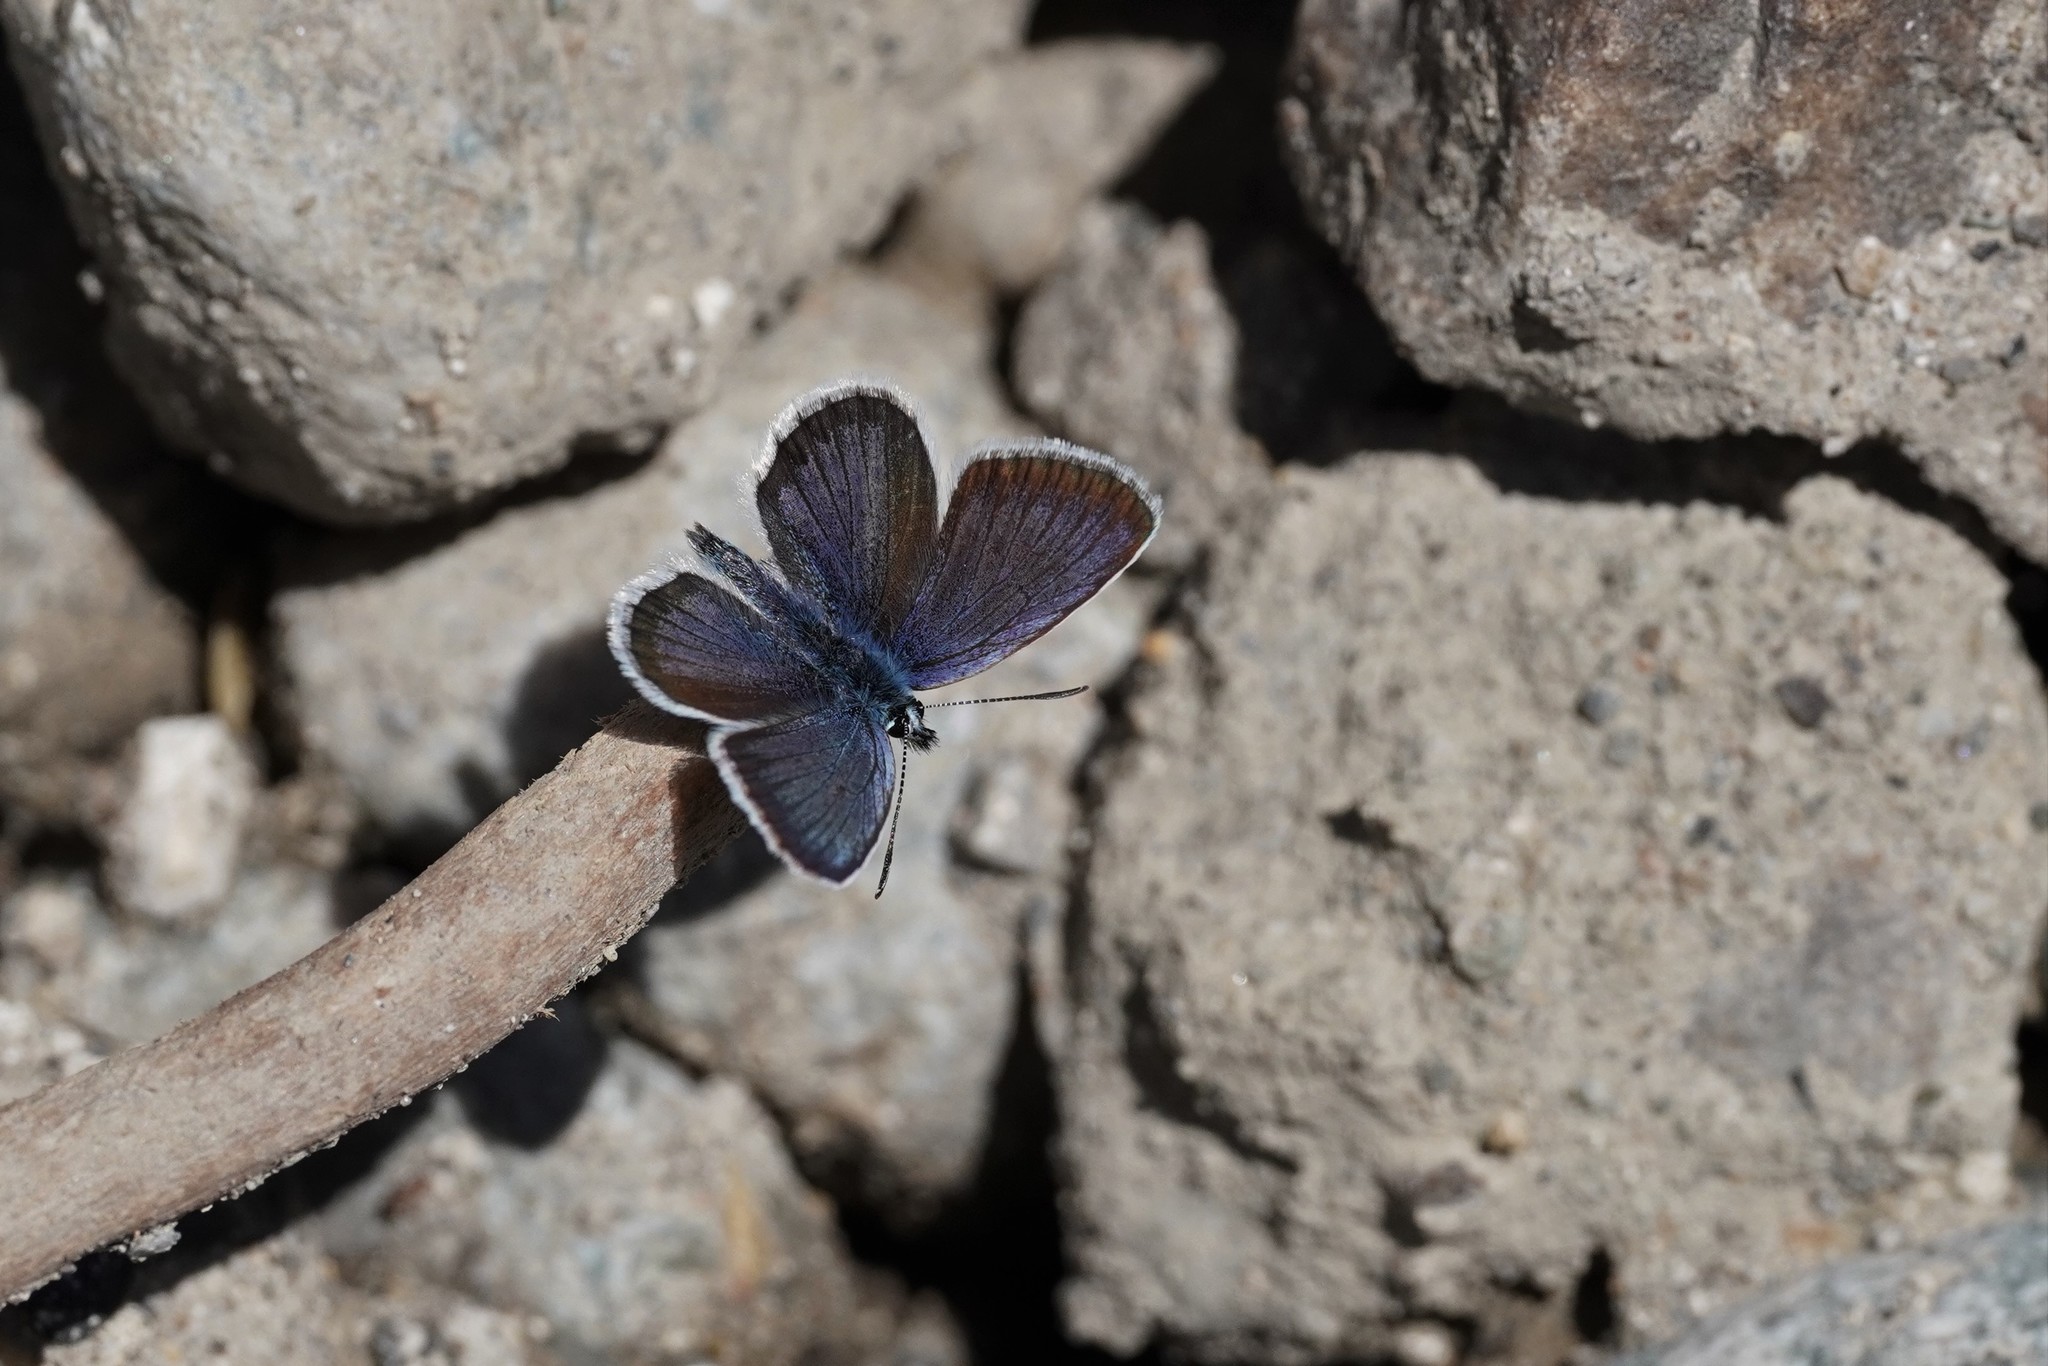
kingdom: Animalia
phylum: Arthropoda
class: Insecta
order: Lepidoptera
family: Lycaenidae
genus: Plebejus
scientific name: Plebejus argus
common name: Silver-studded blue
